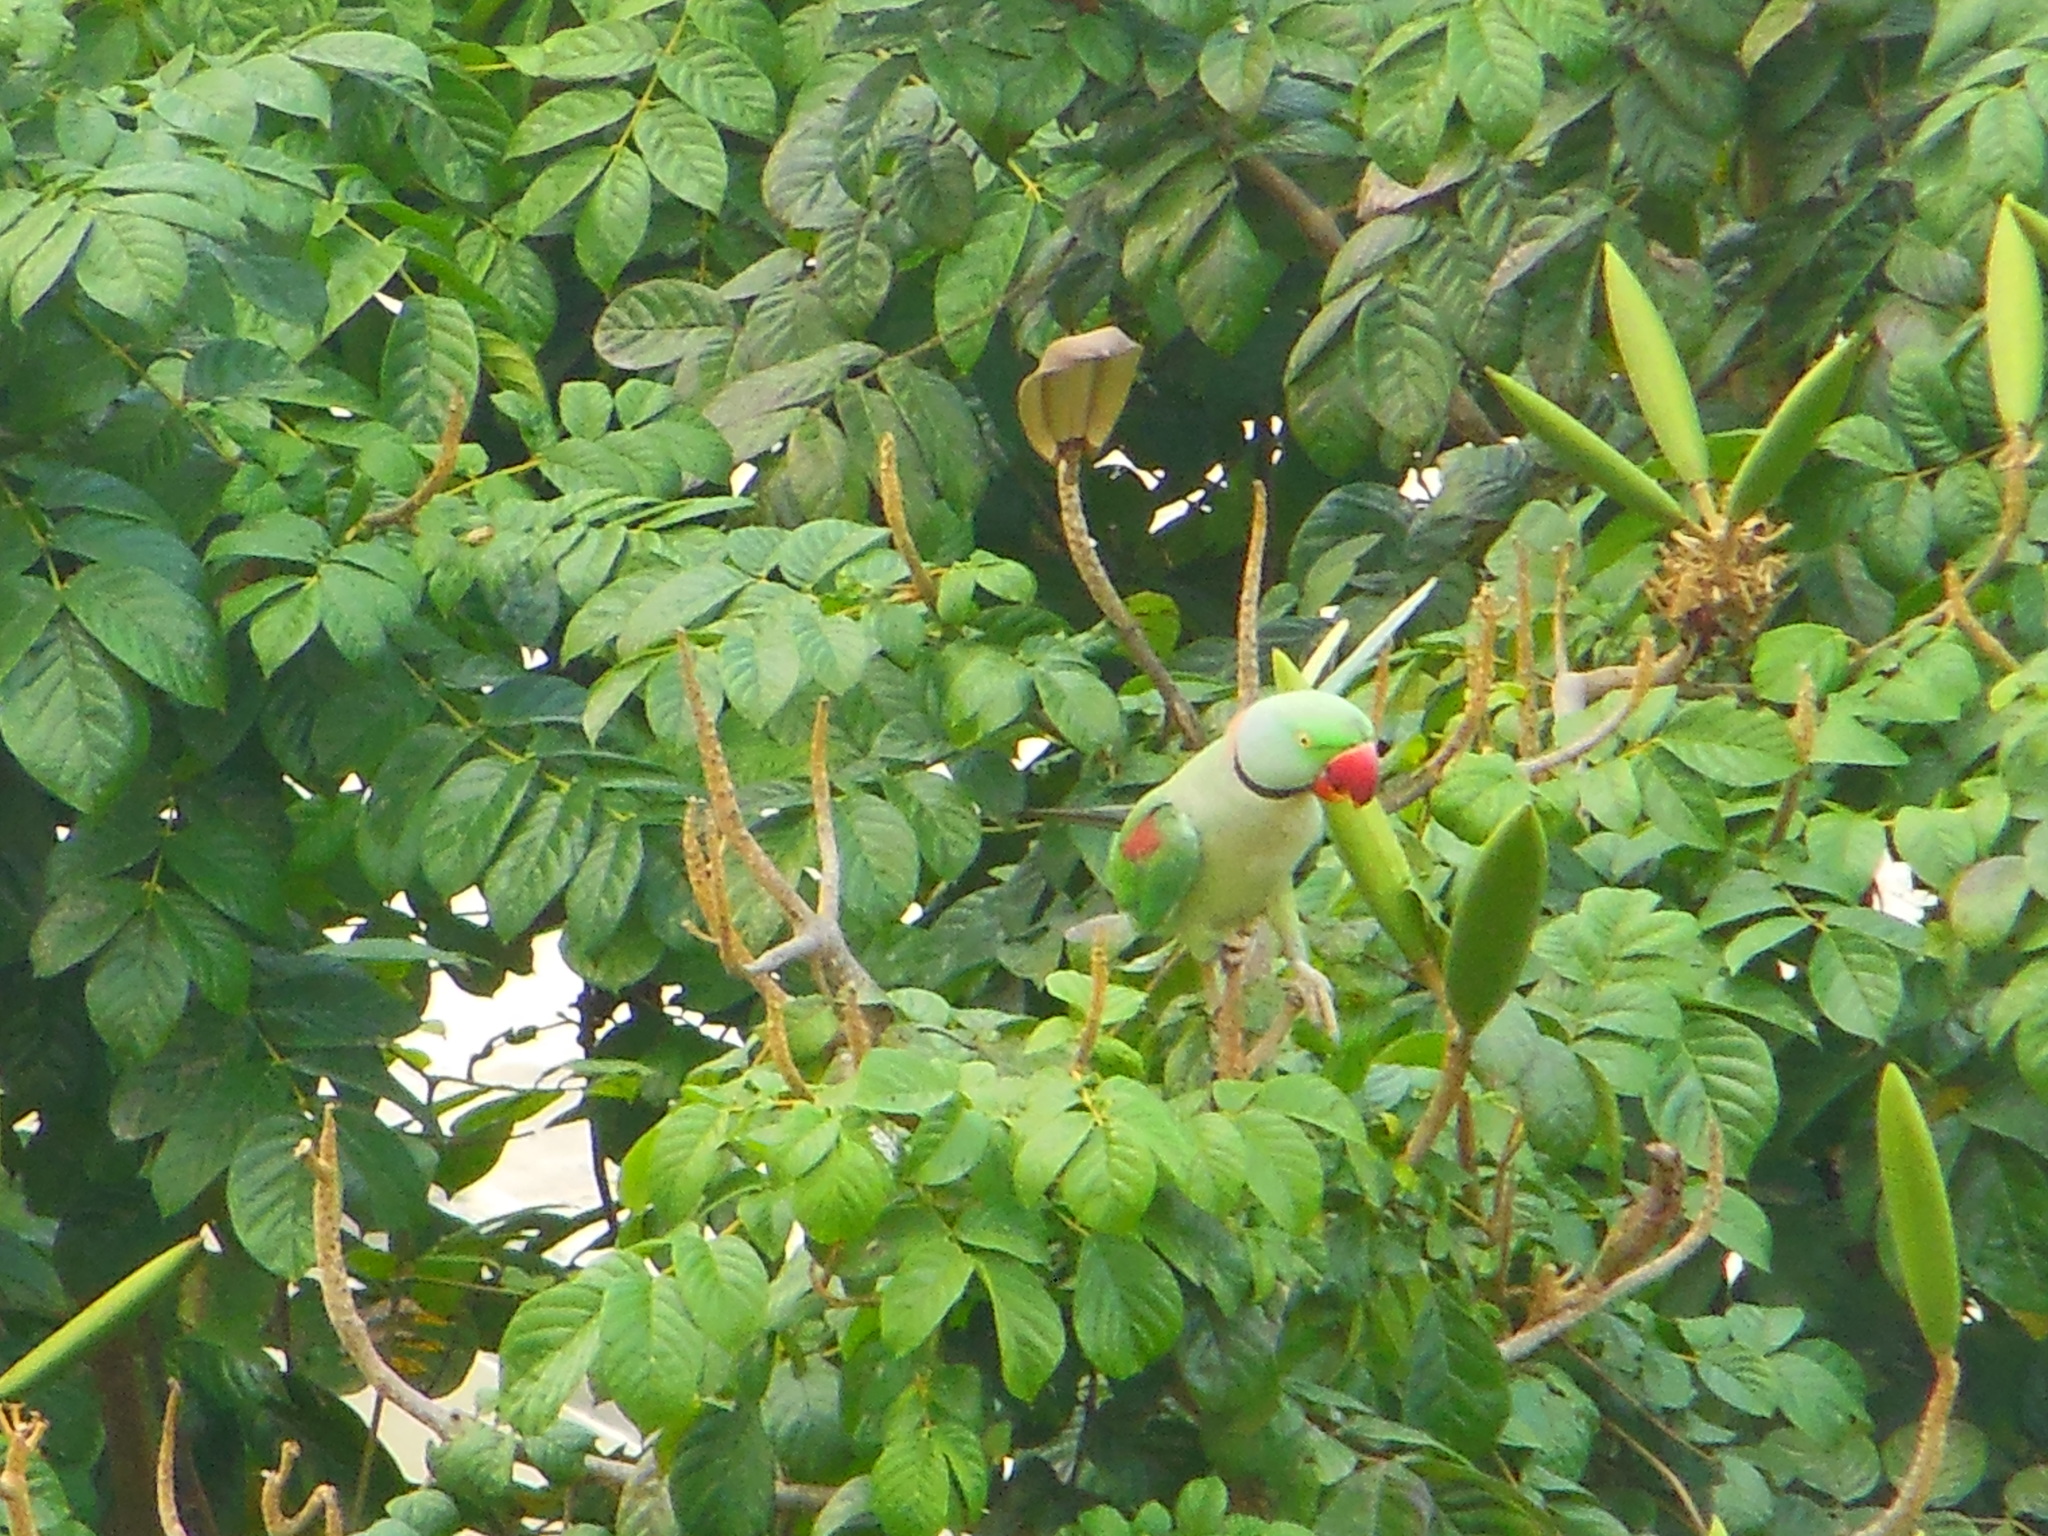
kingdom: Animalia
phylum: Chordata
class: Aves
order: Psittaciformes
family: Psittacidae
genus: Psittacula
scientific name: Psittacula eupatria
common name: Alexandrine parakeet
